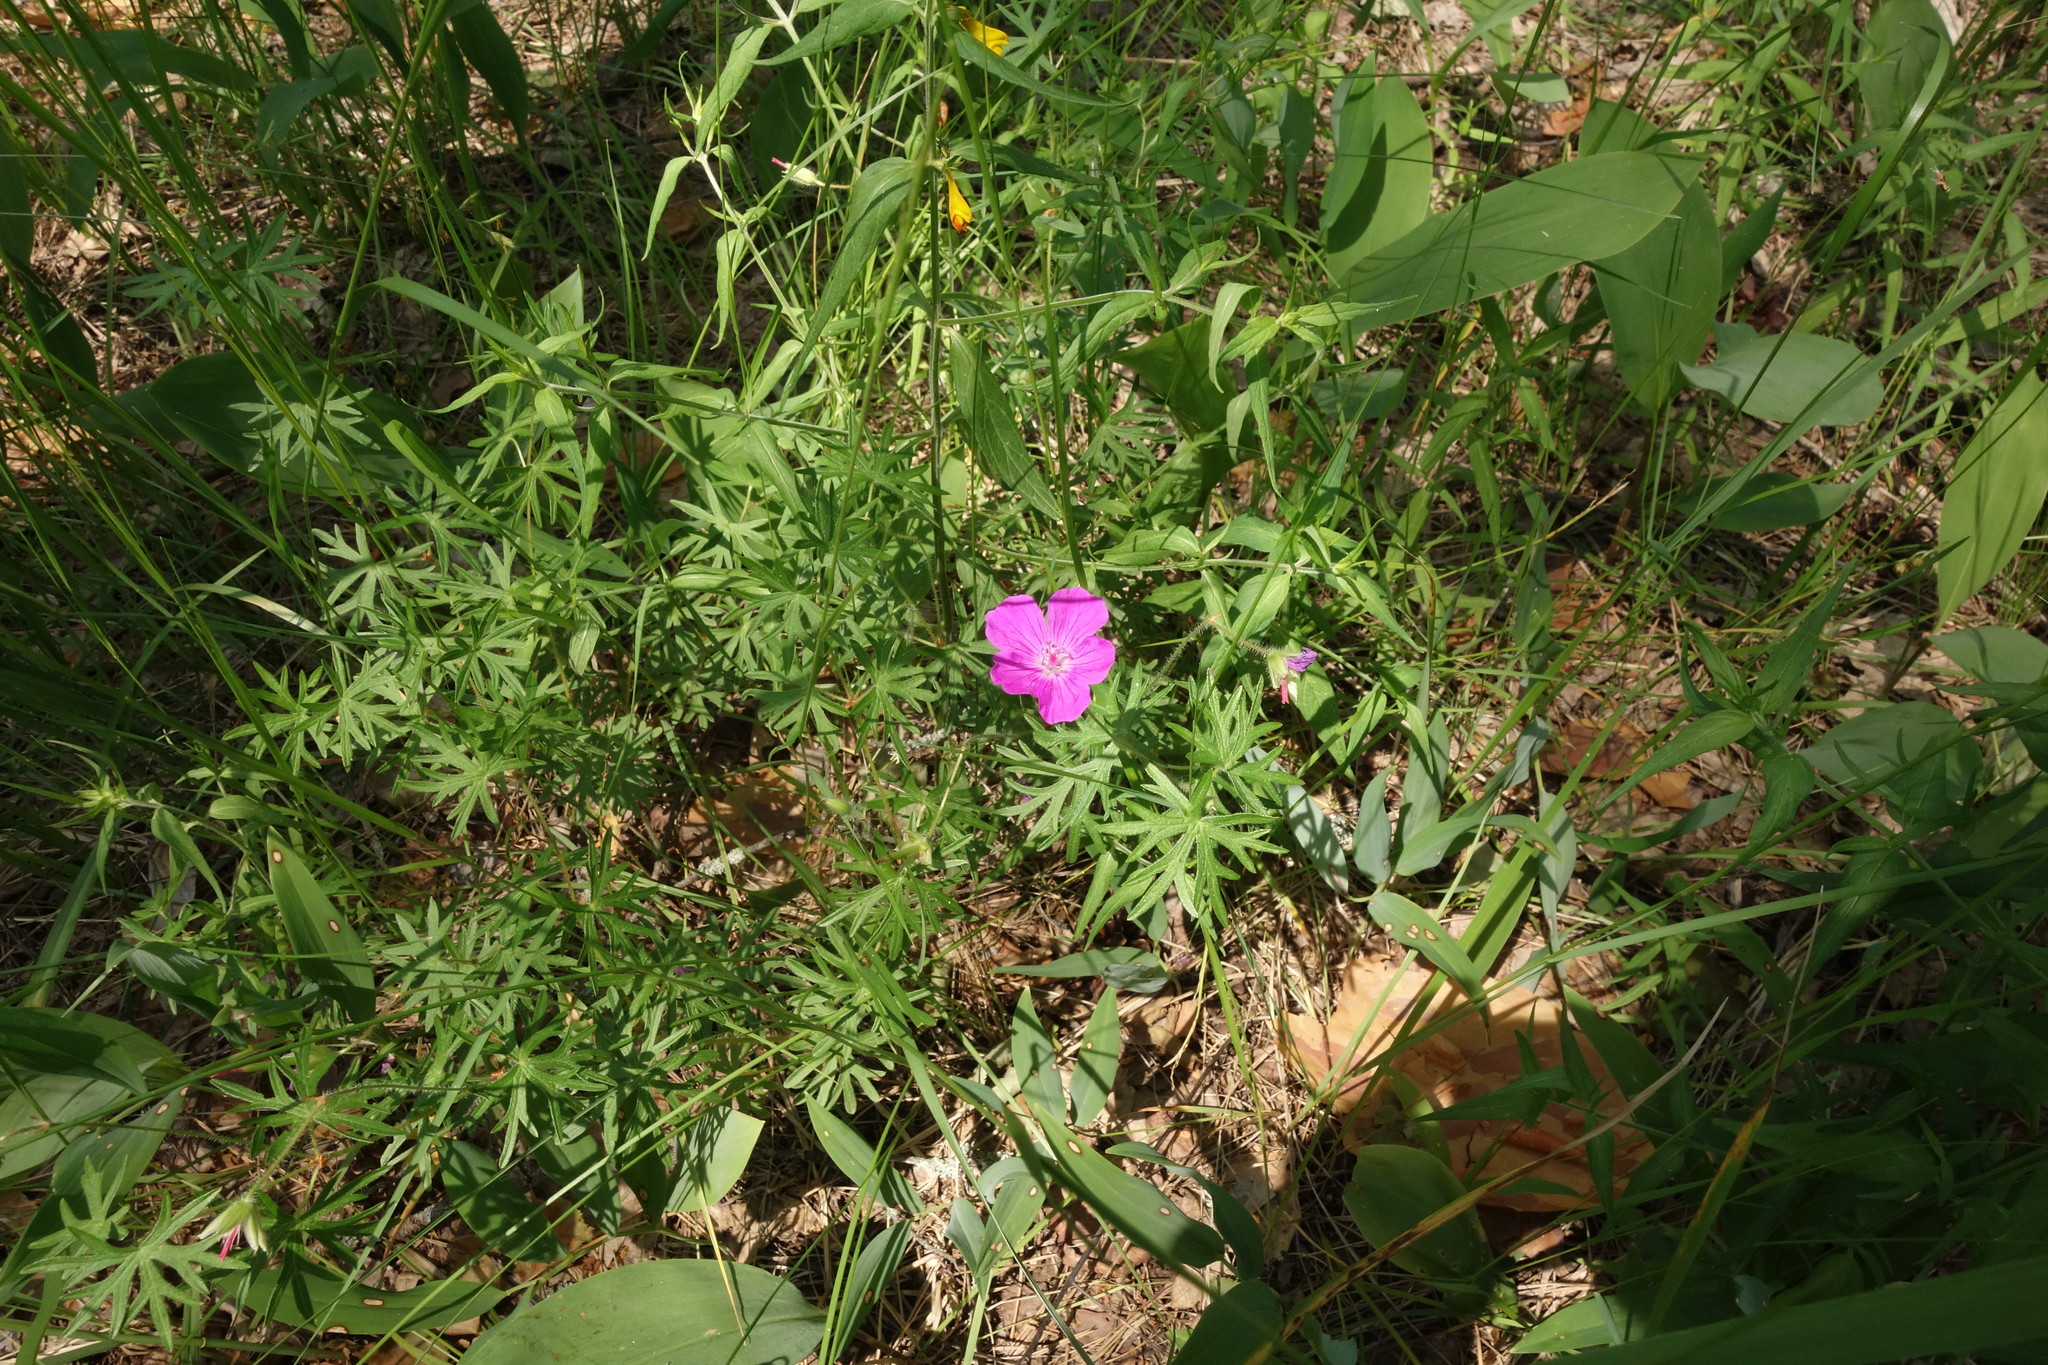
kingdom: Plantae
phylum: Tracheophyta
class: Magnoliopsida
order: Geraniales
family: Geraniaceae
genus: Geranium
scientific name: Geranium sanguineum
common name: Bloody crane's-bill
